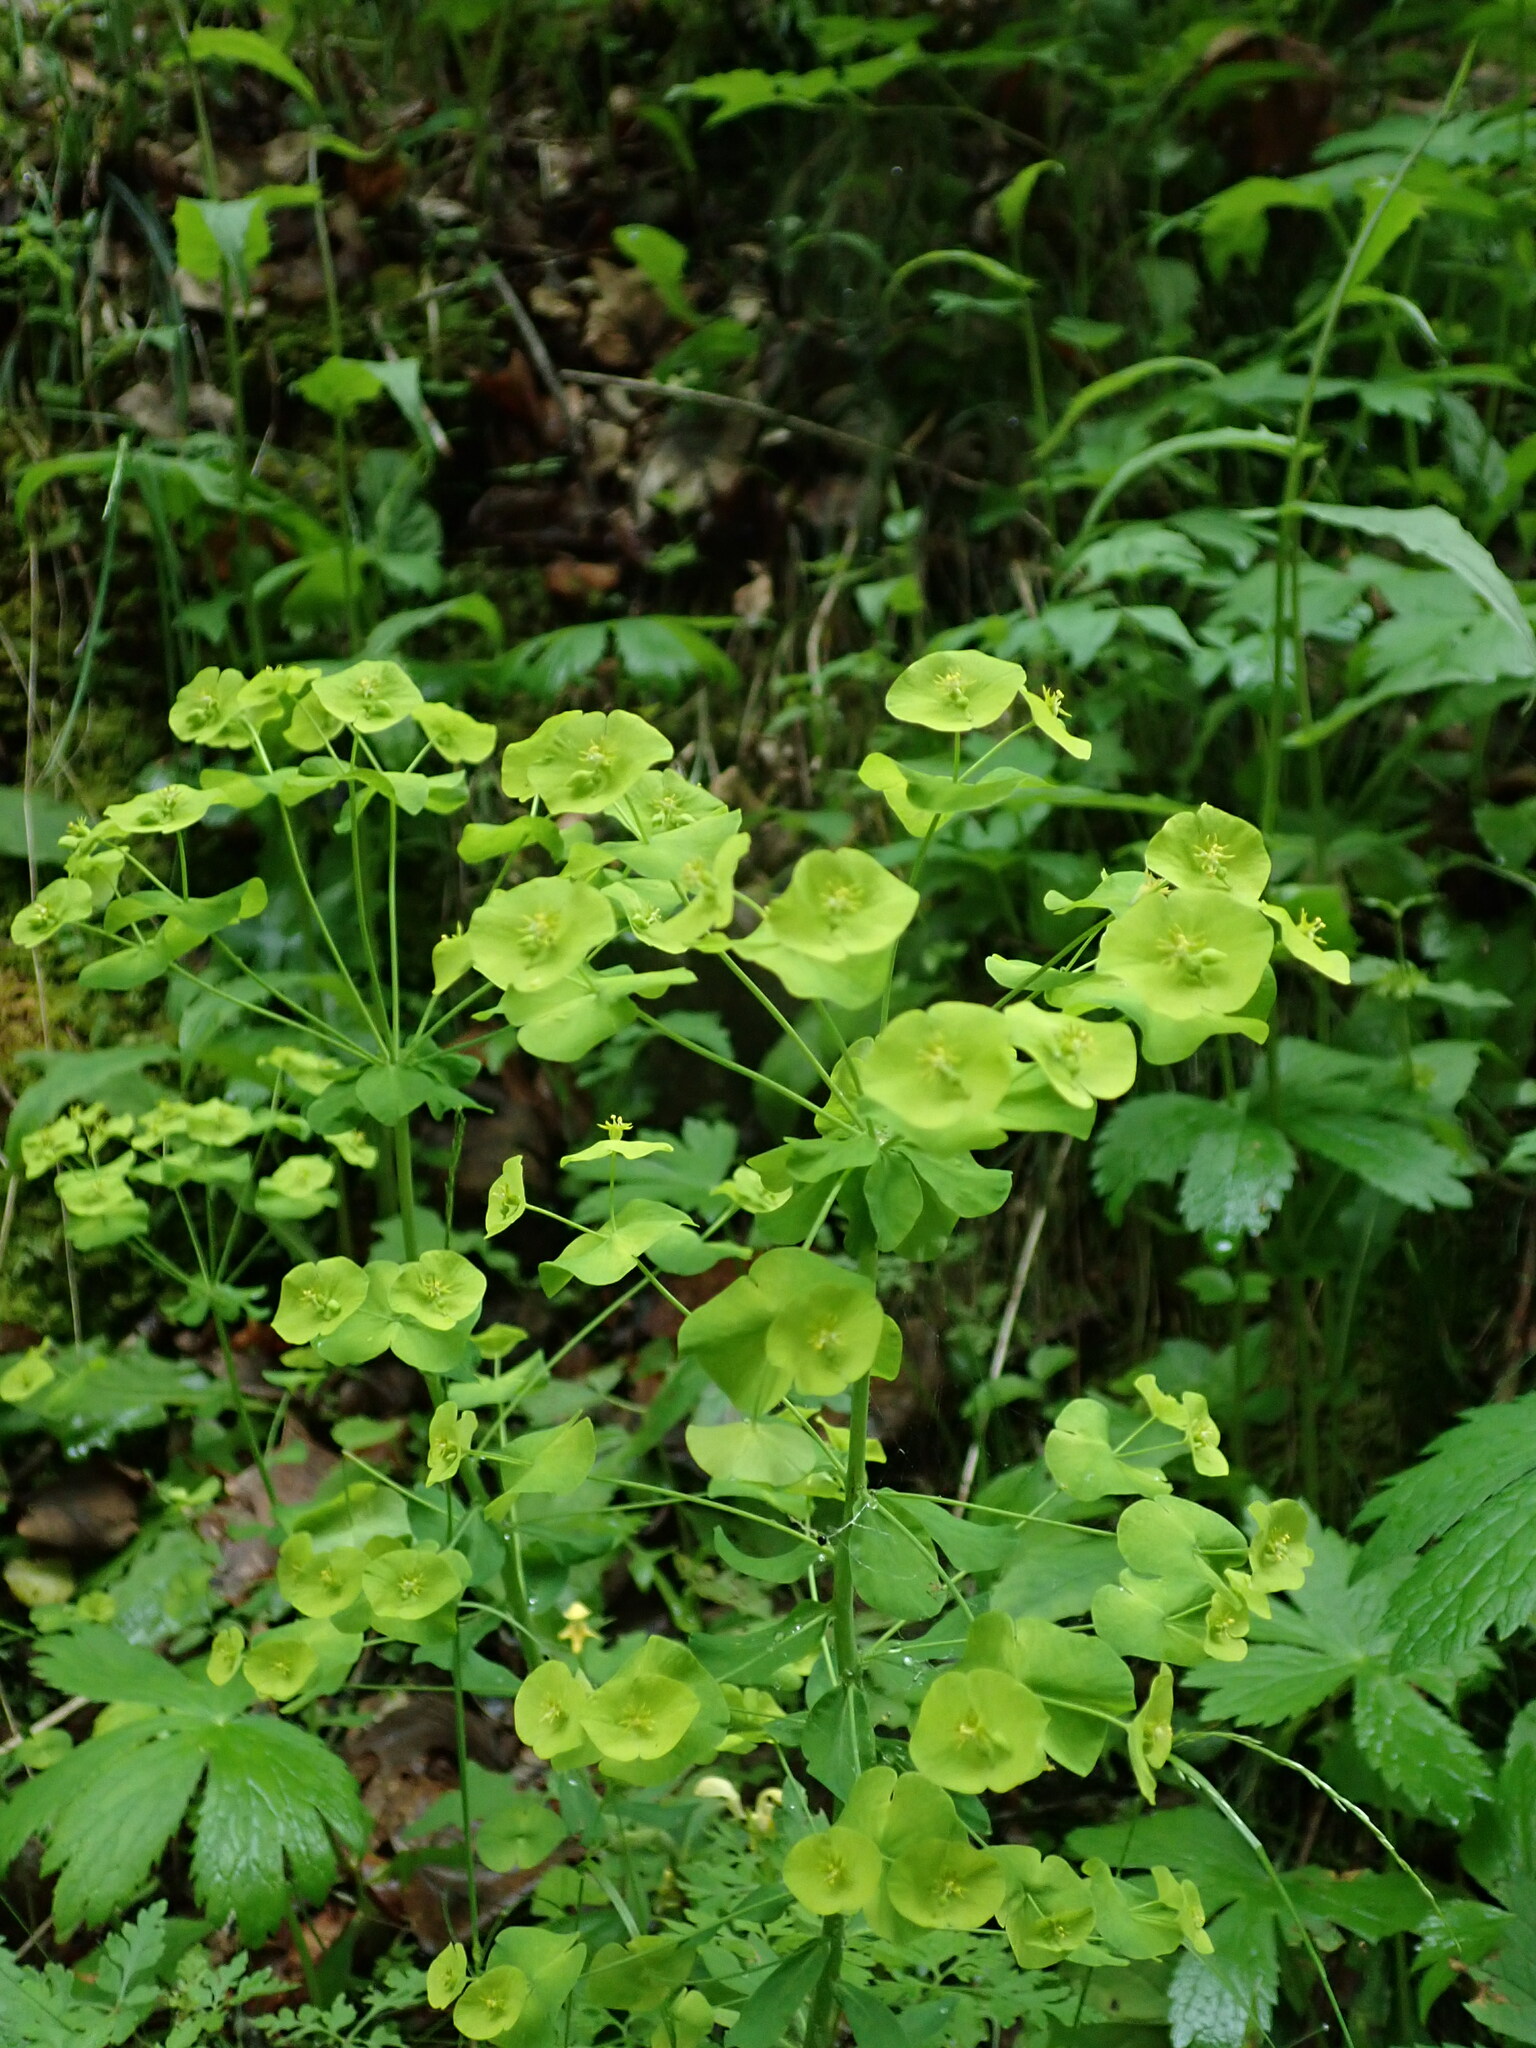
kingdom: Plantae
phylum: Tracheophyta
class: Magnoliopsida
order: Malpighiales
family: Euphorbiaceae
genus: Euphorbia
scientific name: Euphorbia amygdaloides
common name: Wood spurge
